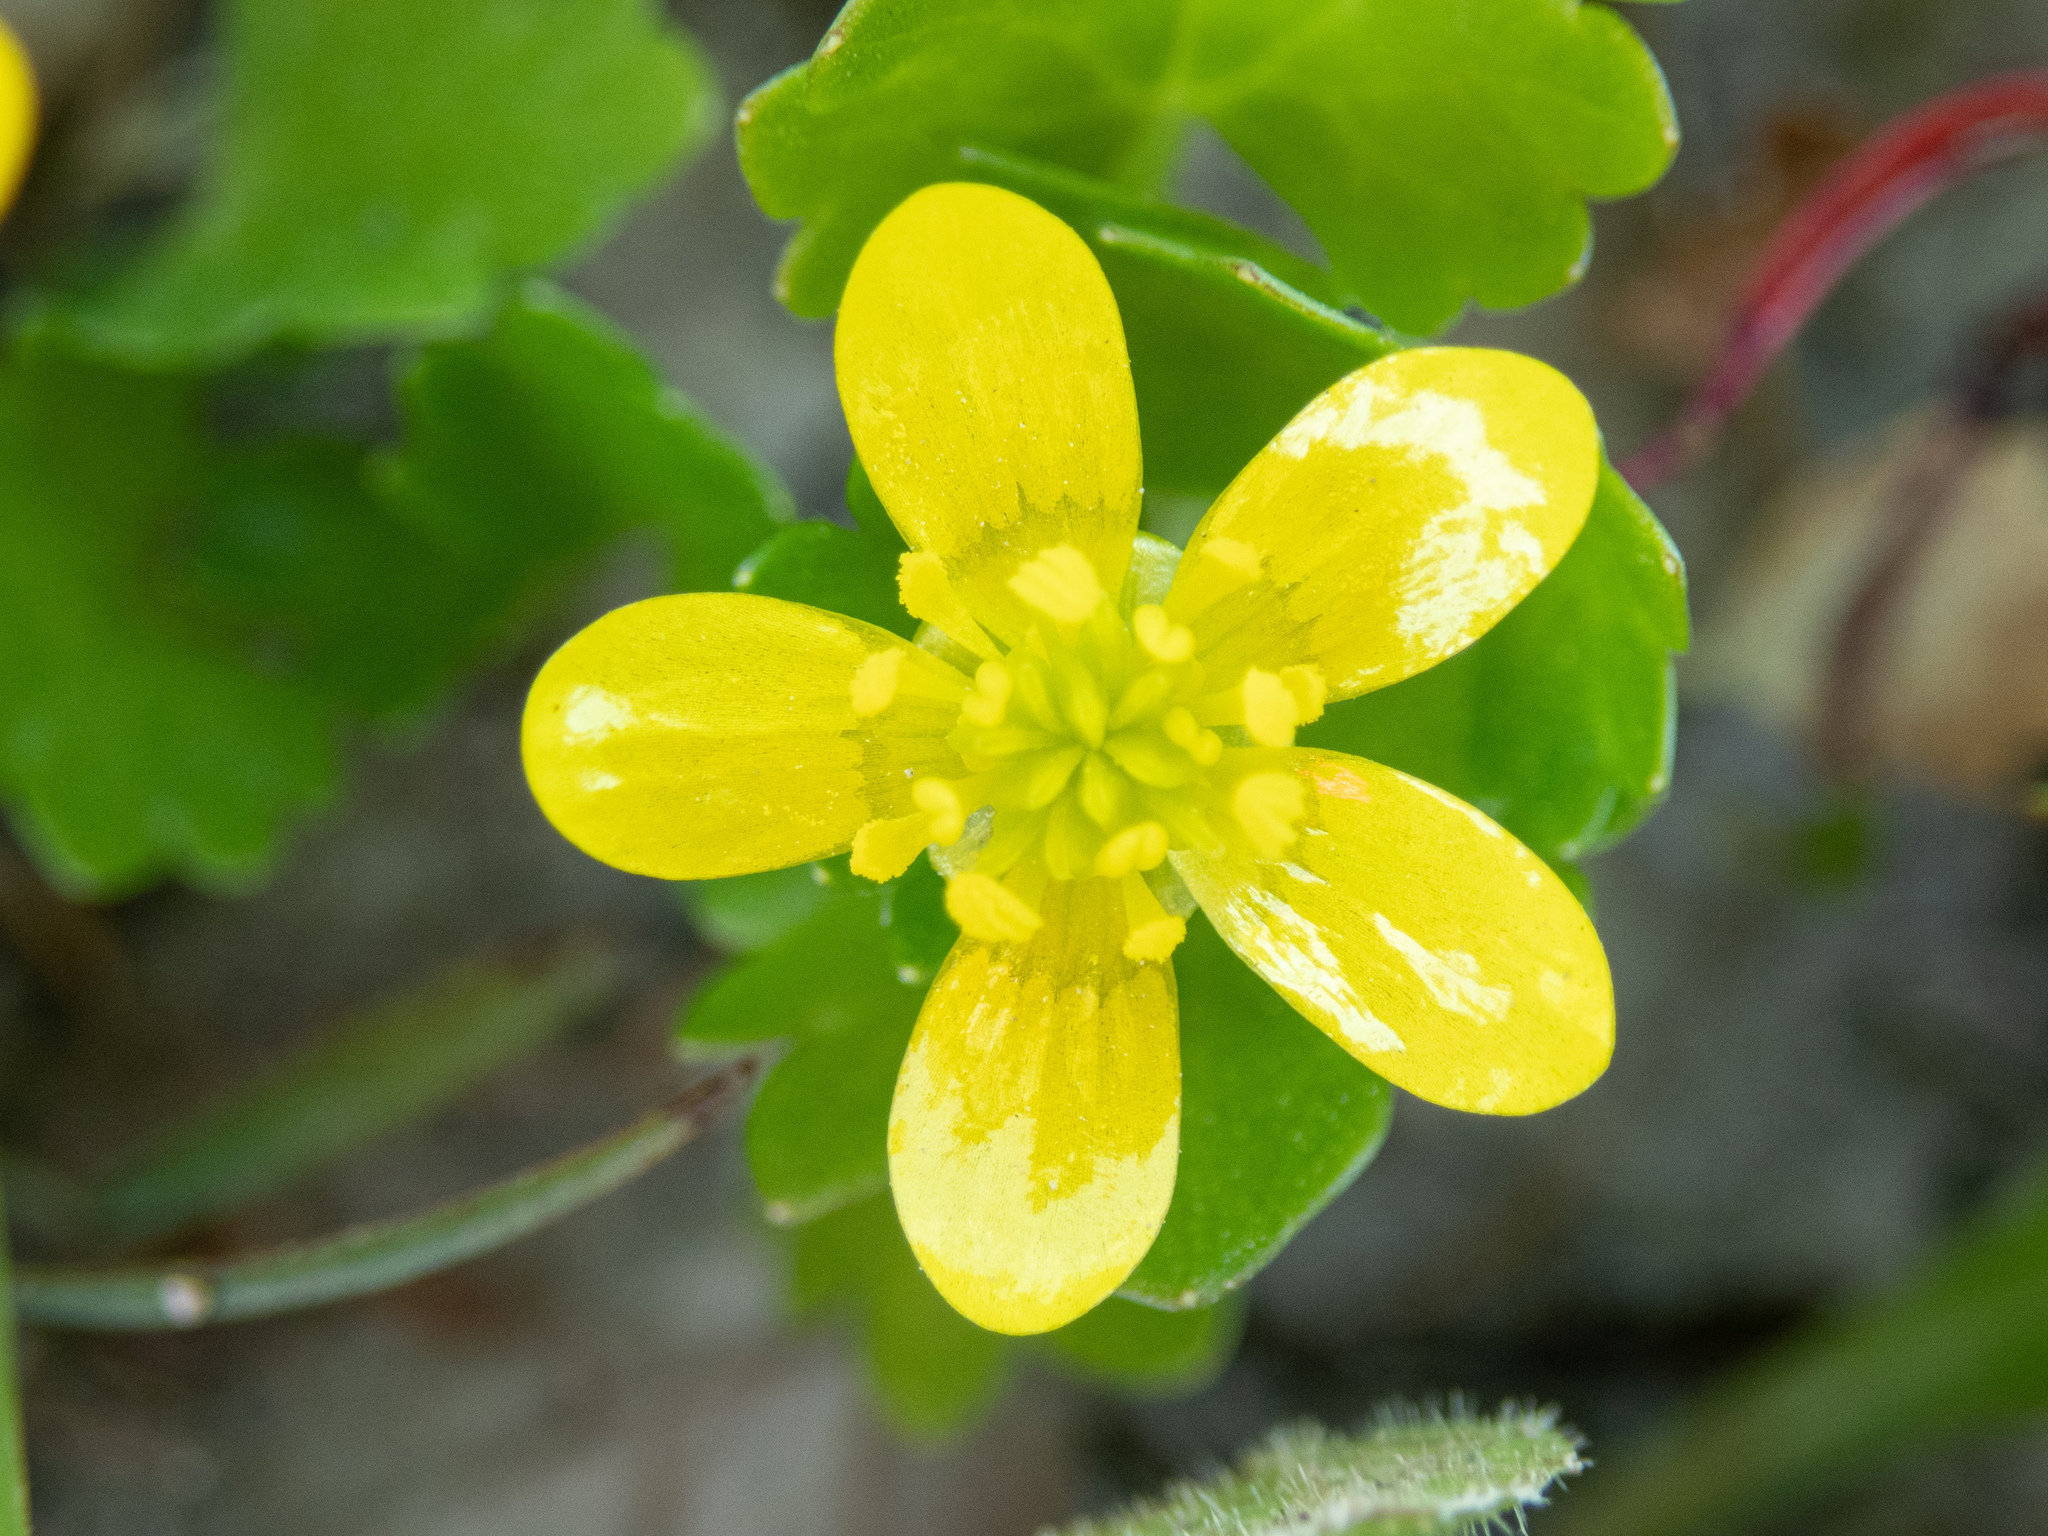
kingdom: Plantae
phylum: Tracheophyta
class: Magnoliopsida
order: Ranunculales
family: Ranunculaceae
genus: Ranunculus
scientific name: Ranunculus muricatus
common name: Rough-fruited buttercup
